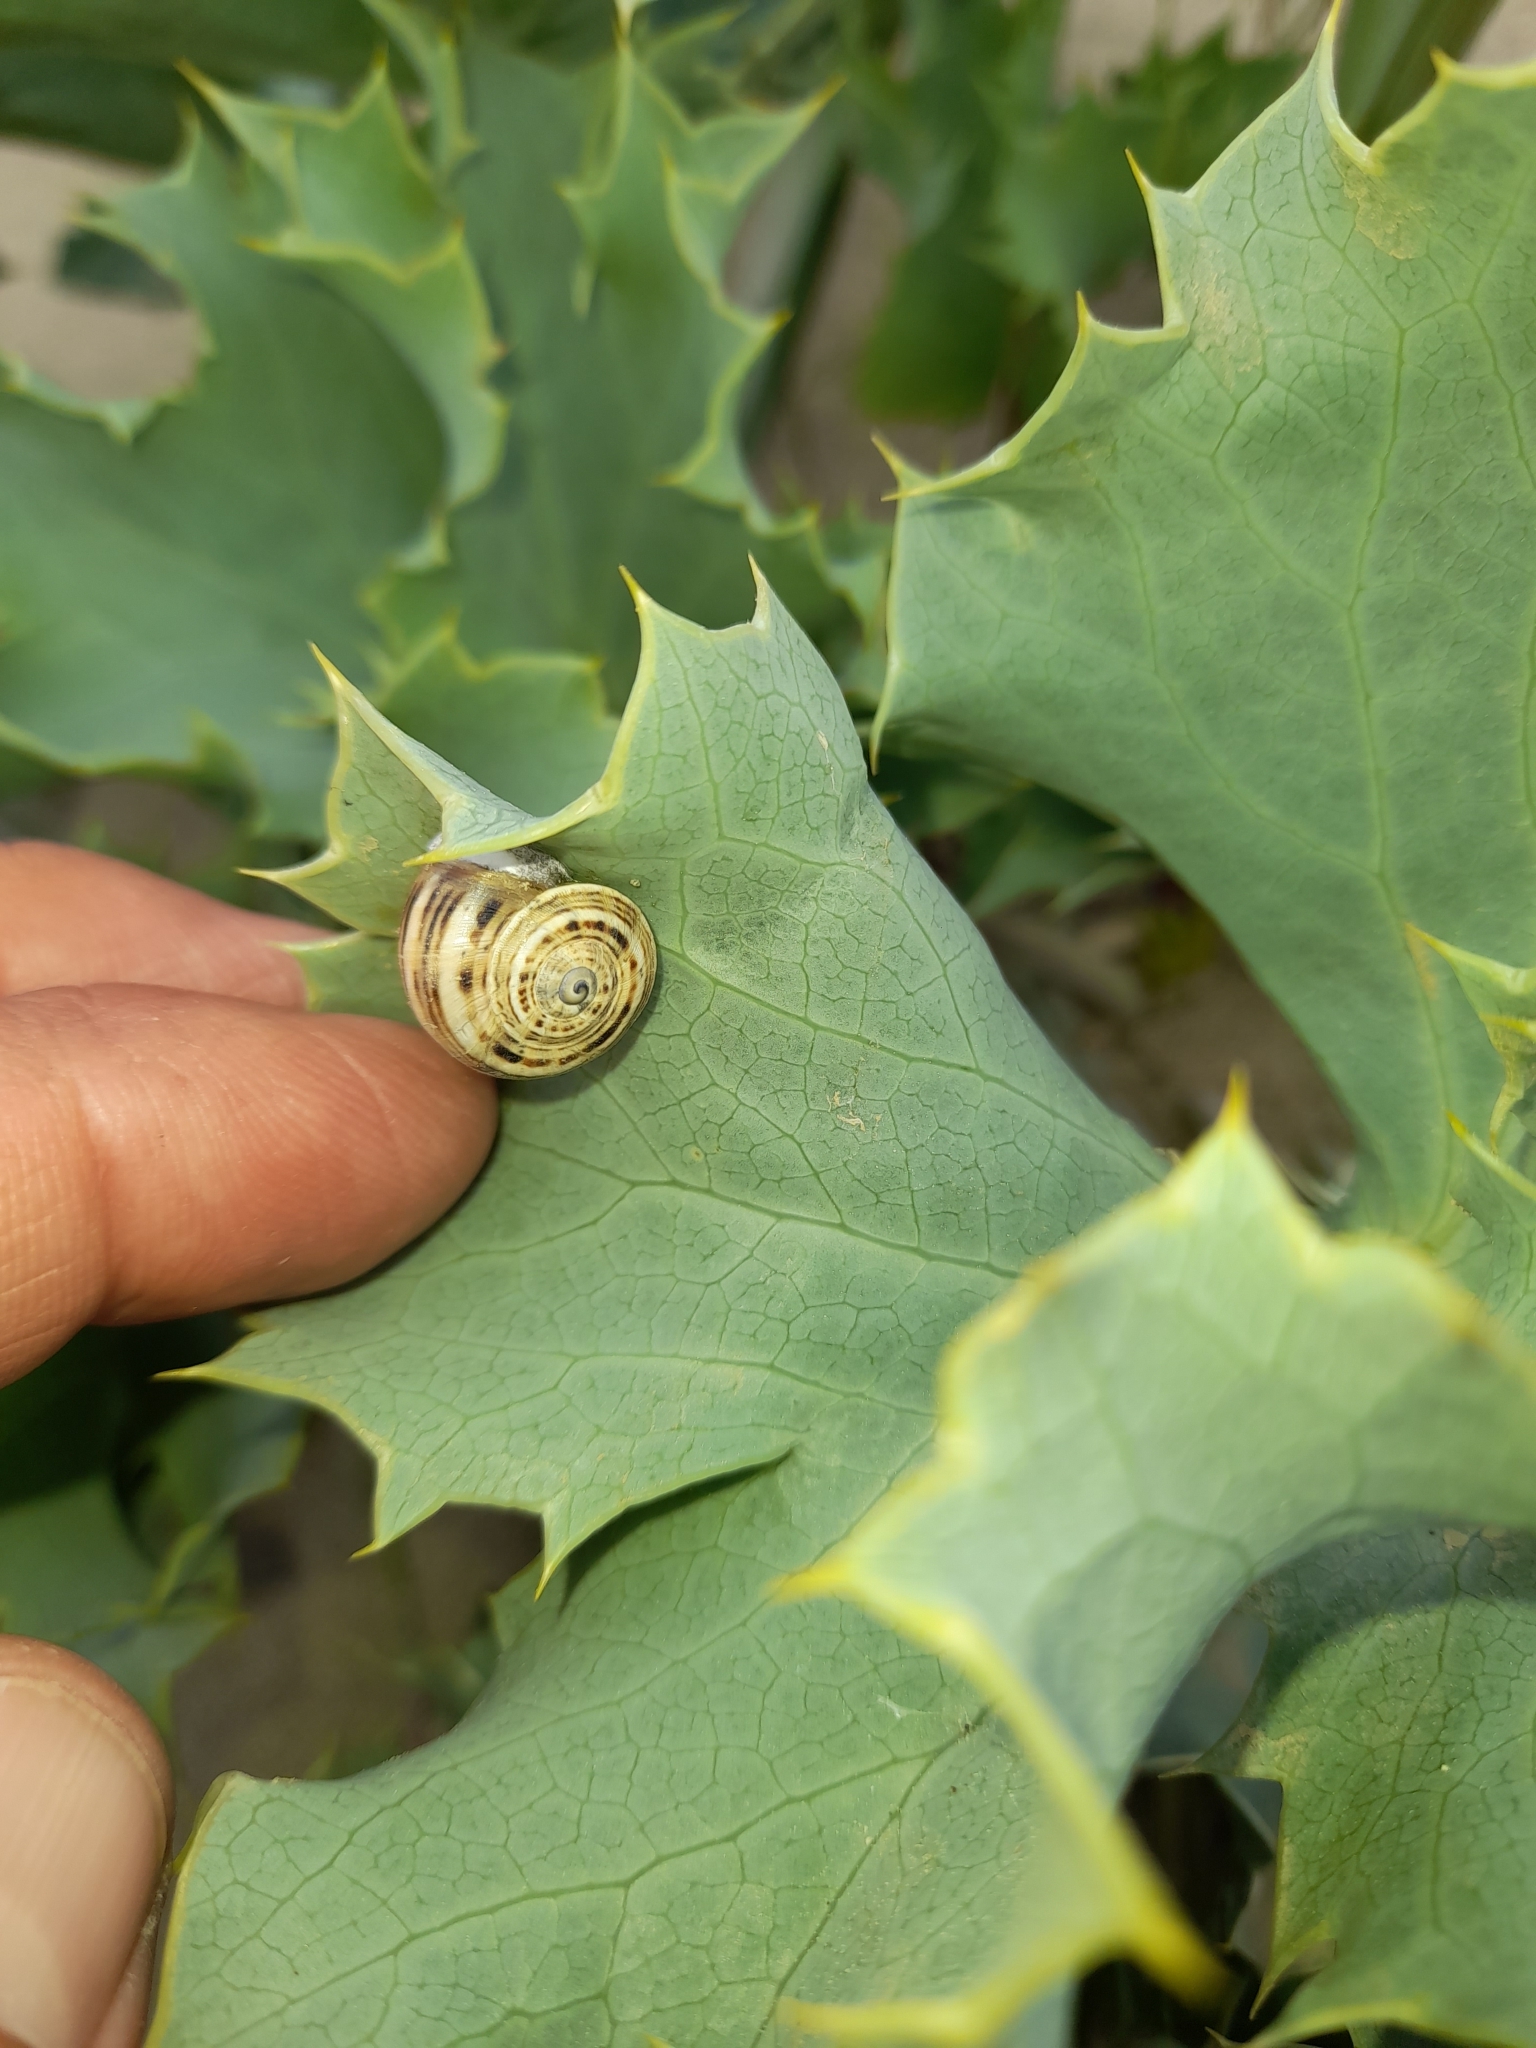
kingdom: Animalia
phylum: Mollusca
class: Gastropoda
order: Stylommatophora
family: Helicidae
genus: Theba
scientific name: Theba pisana
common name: White snail
